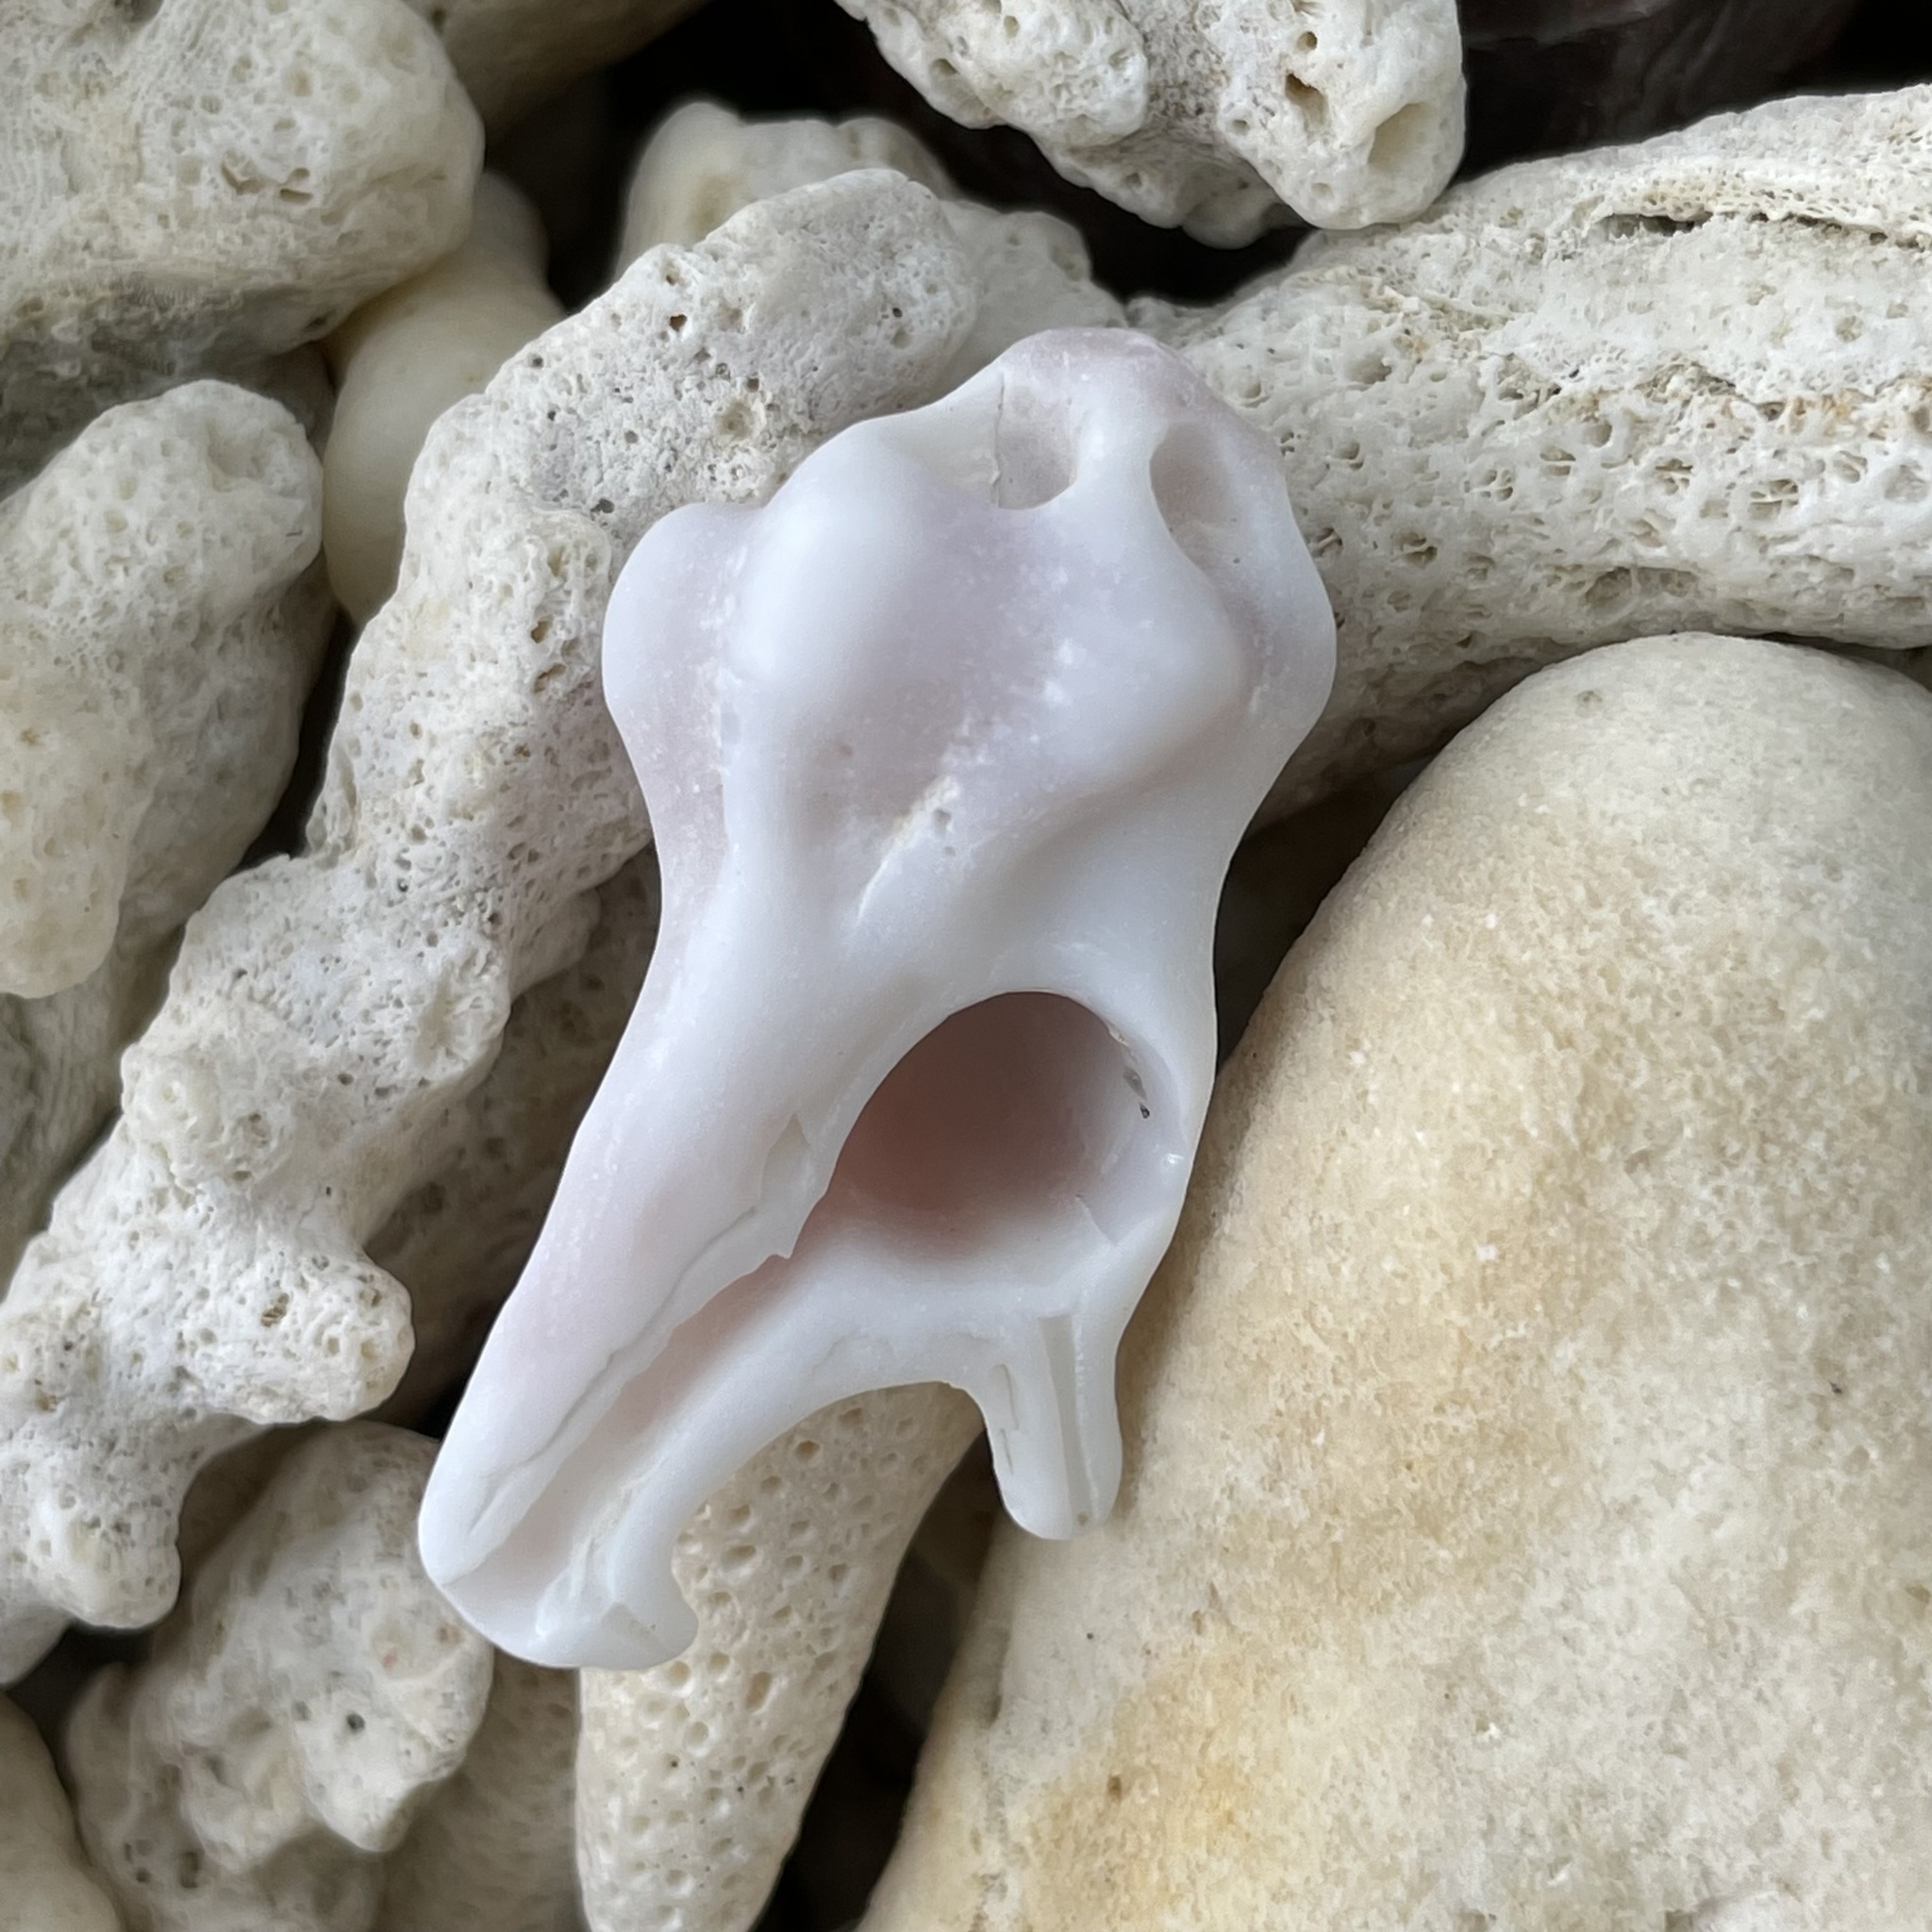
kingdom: Animalia
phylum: Mollusca
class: Gastropoda
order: Neogastropoda
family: Muricidae
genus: Homalocantha
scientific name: Homalocantha pele
